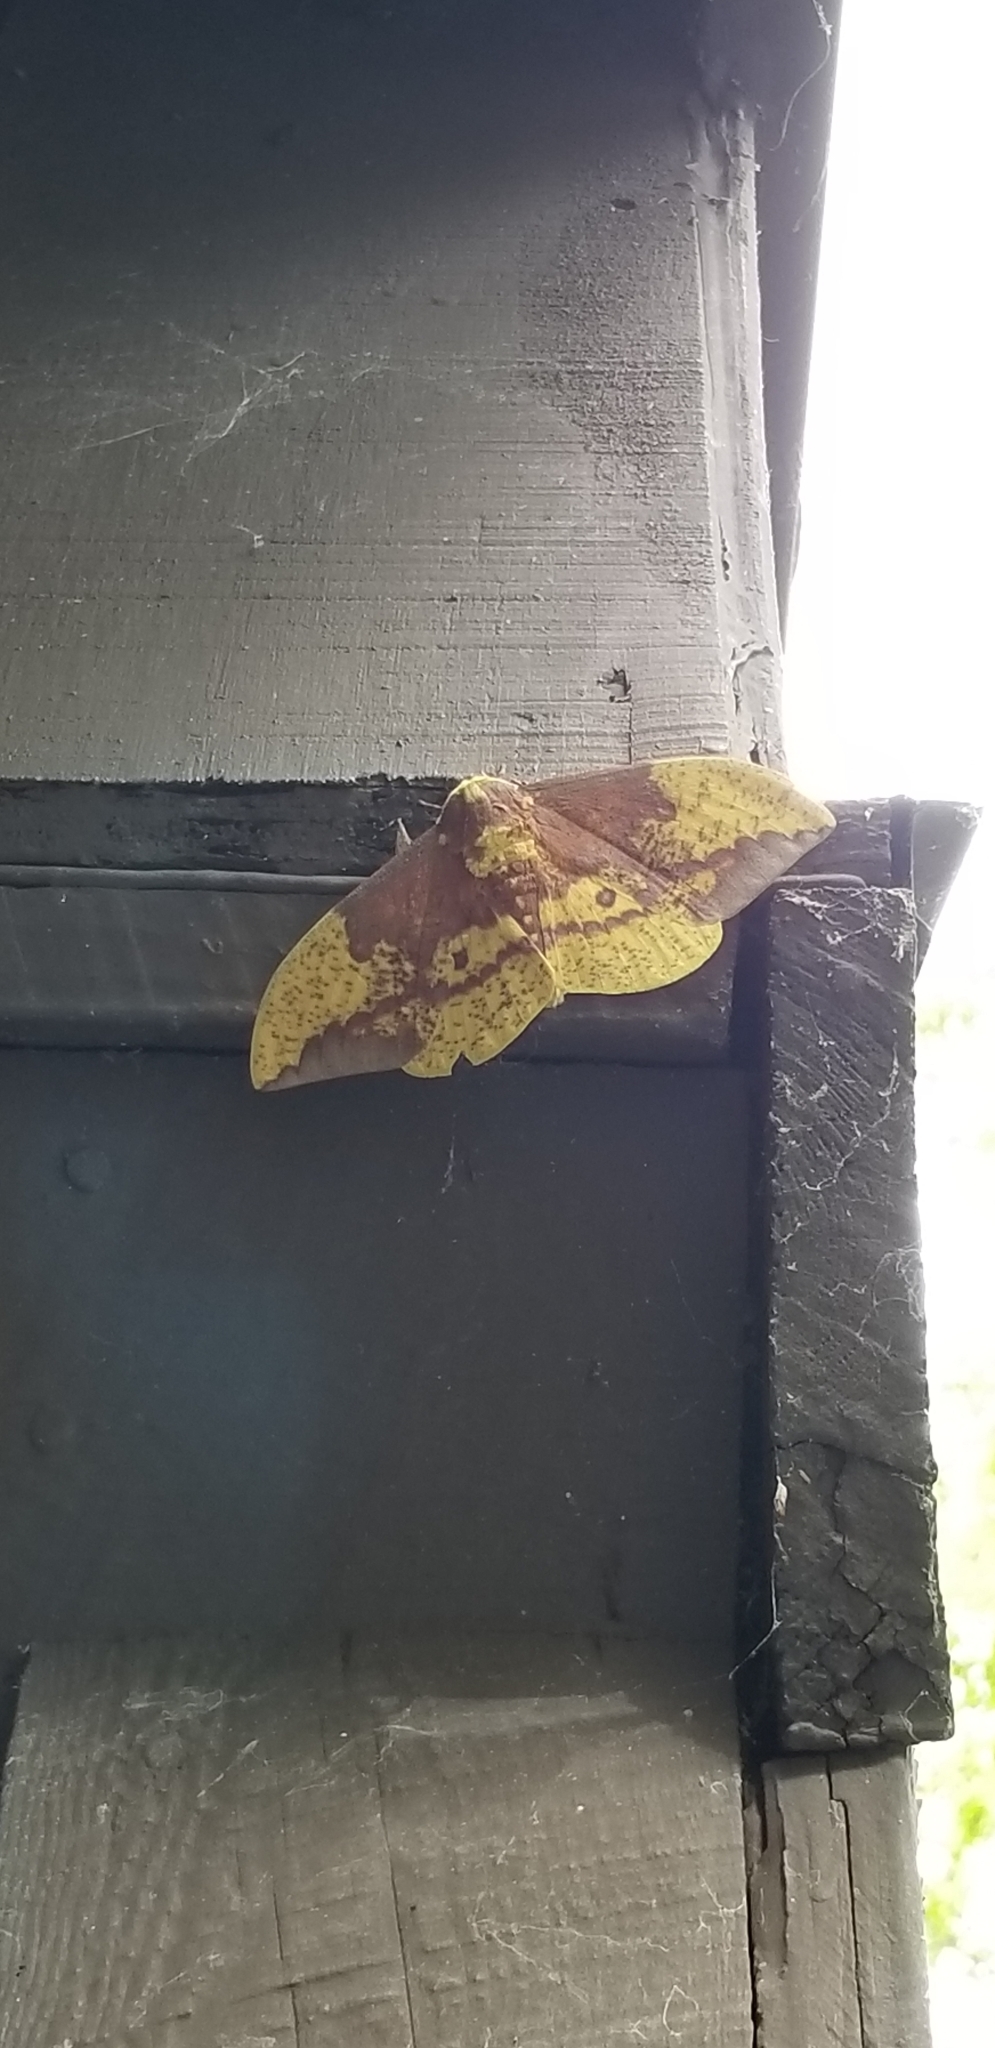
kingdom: Animalia
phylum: Arthropoda
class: Insecta
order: Lepidoptera
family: Saturniidae
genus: Eacles
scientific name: Eacles imperialis
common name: Imperial moth
